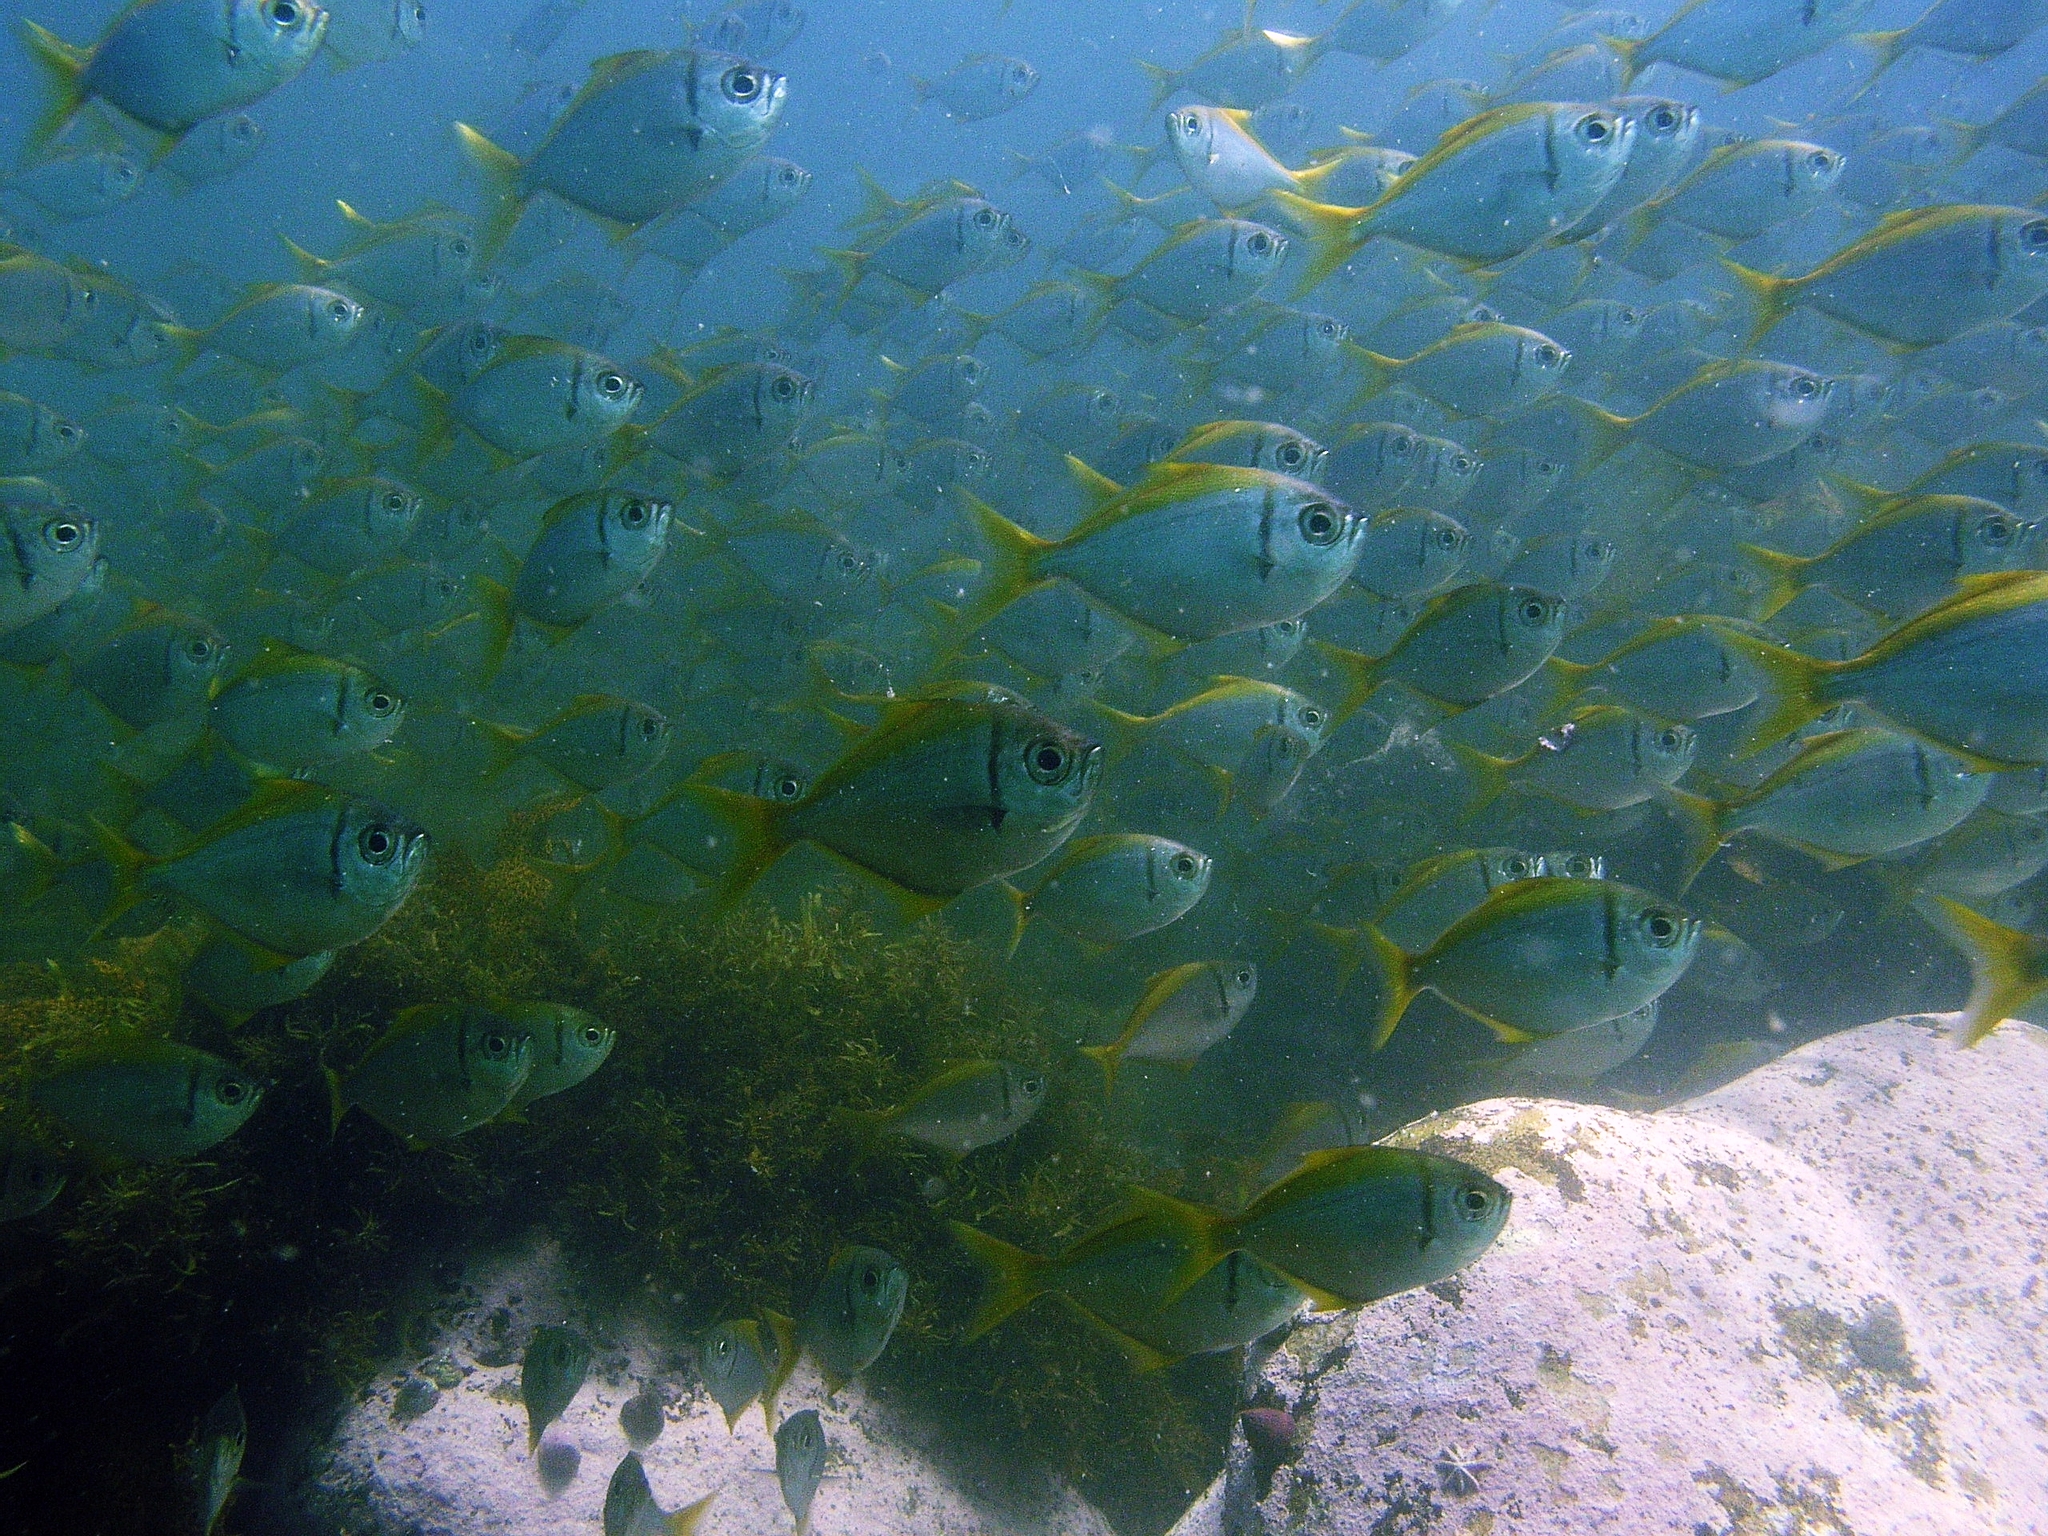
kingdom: Animalia
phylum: Chordata
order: Perciformes
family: Monodactylidae
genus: Schuettea
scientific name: Schuettea scalaripinnis
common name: Eastern pomfred
